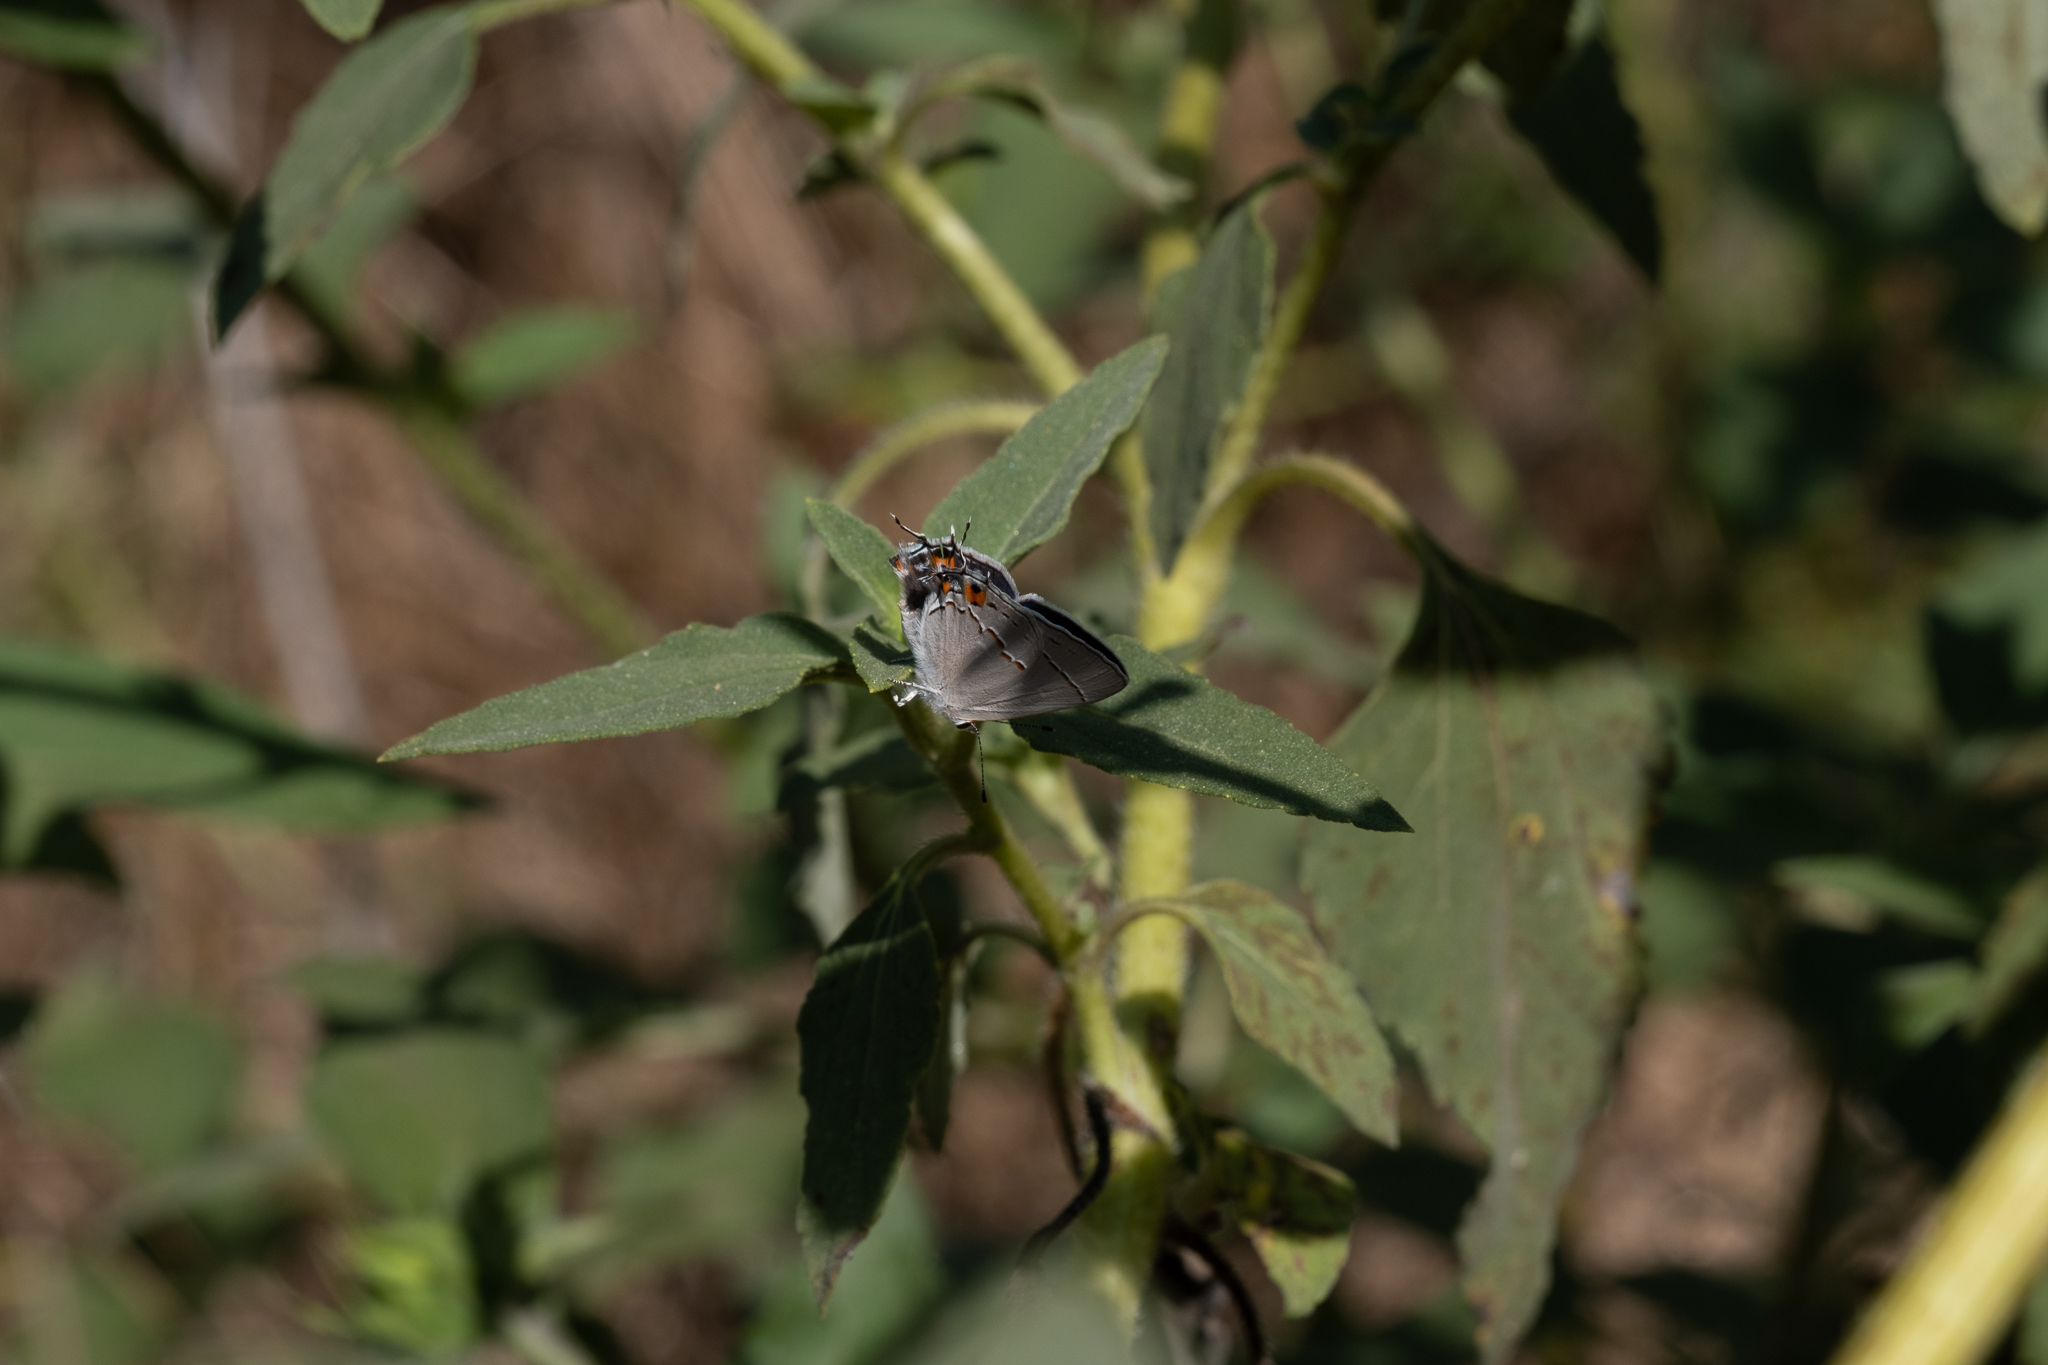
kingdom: Animalia
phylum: Arthropoda
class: Insecta
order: Lepidoptera
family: Lycaenidae
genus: Strymon
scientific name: Strymon melinus
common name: Gray hairstreak
